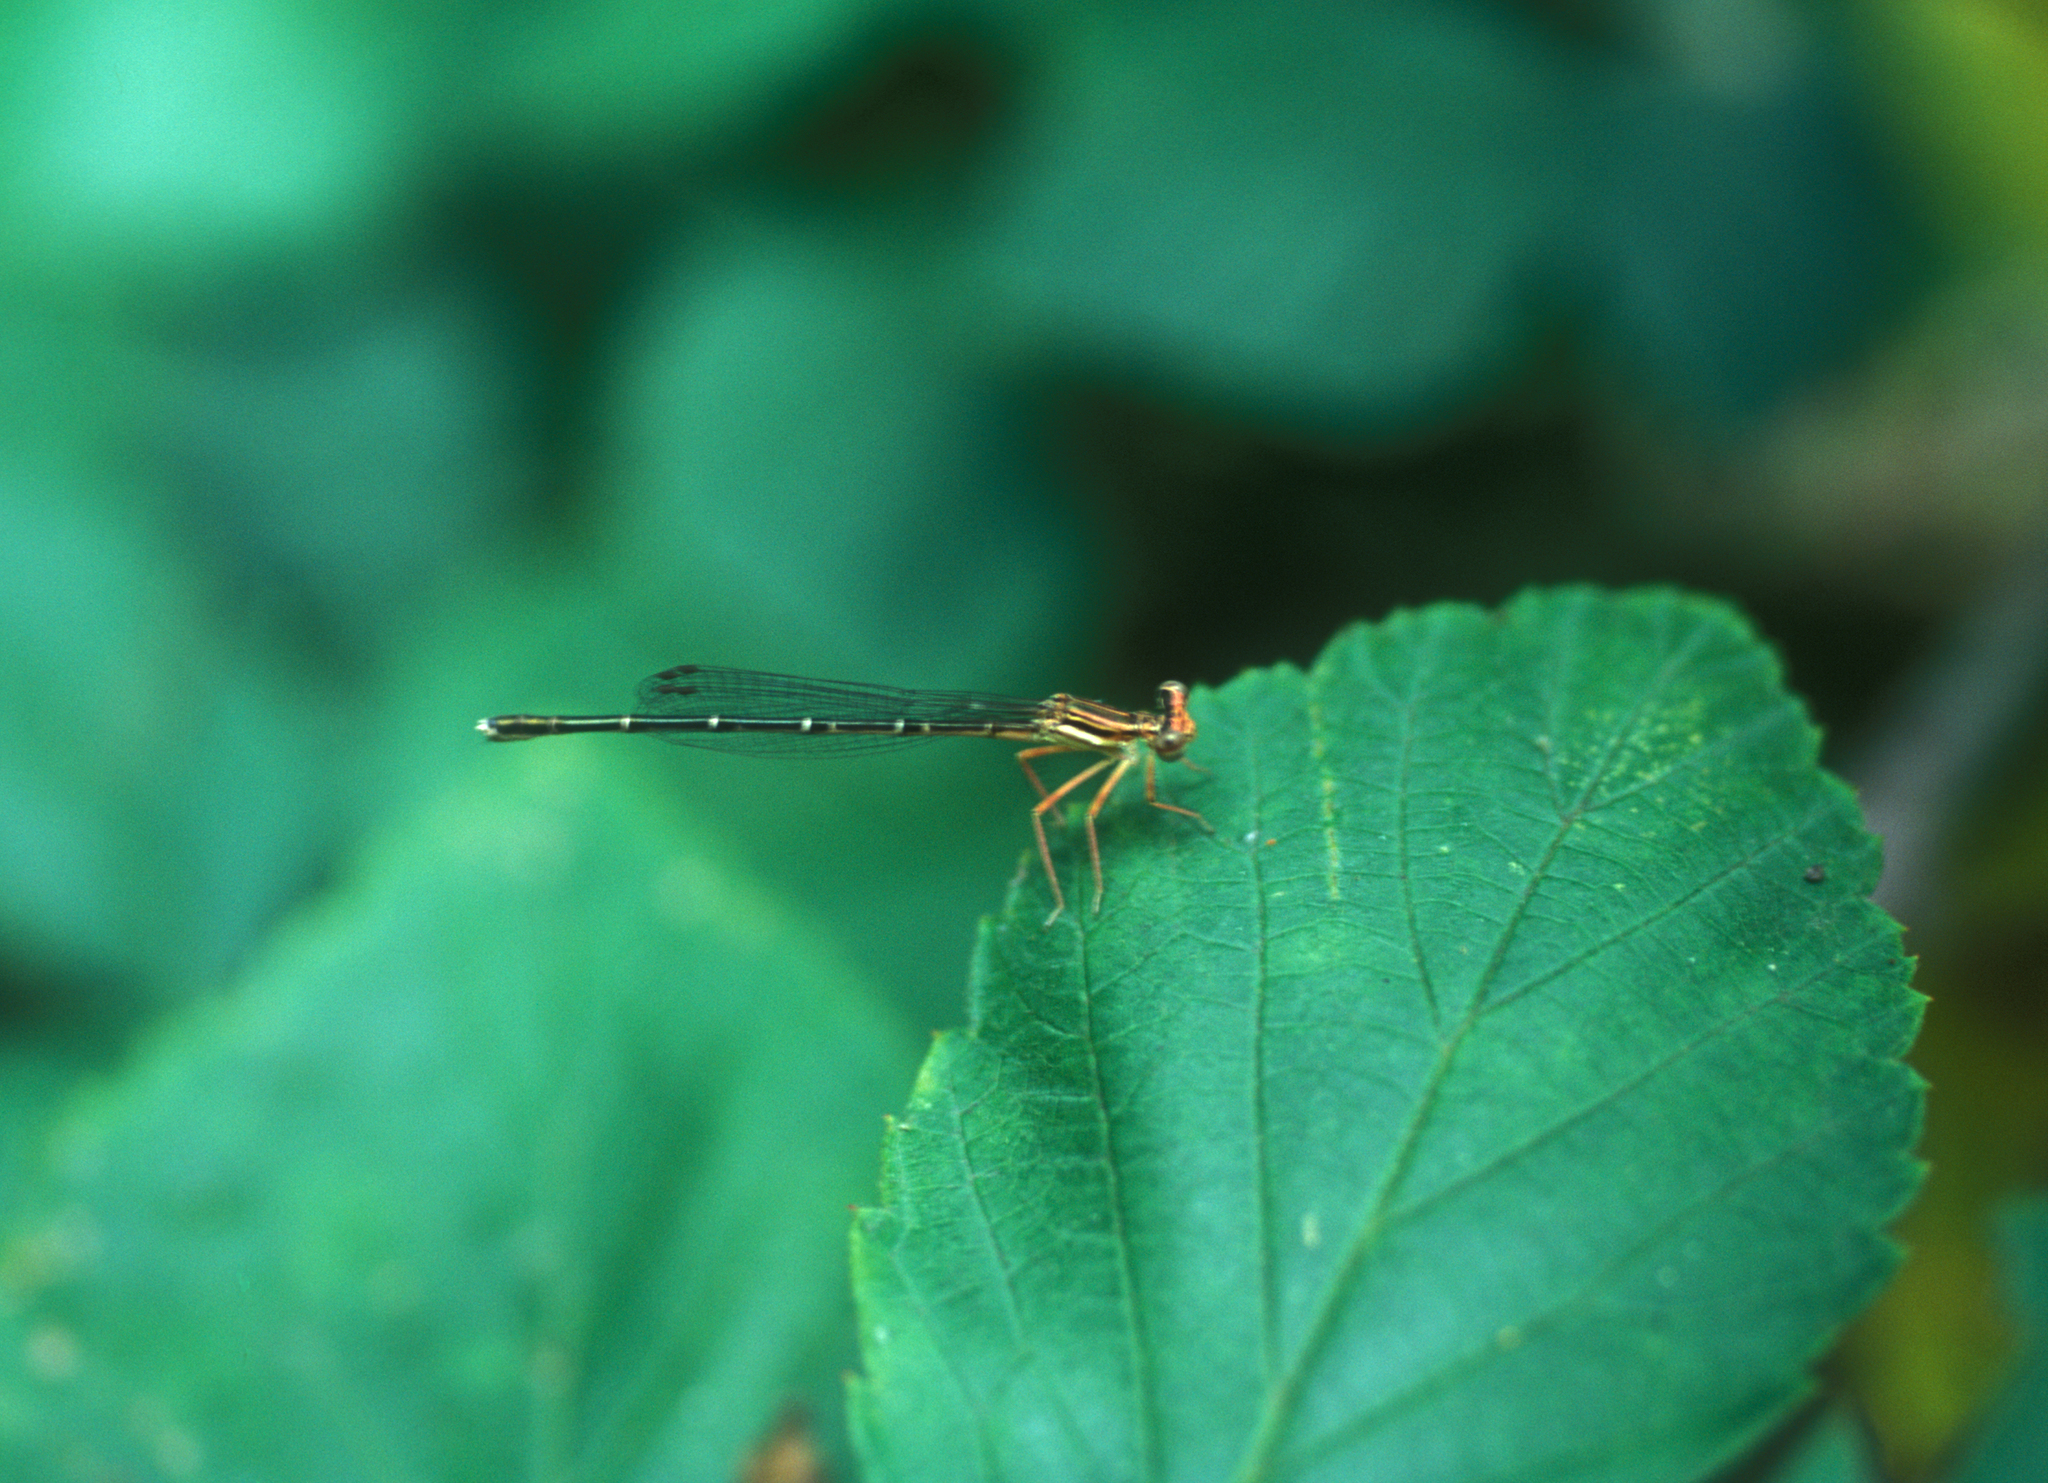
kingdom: Animalia
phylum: Arthropoda
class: Insecta
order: Odonata
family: Platycnemididae
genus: Platycnemis
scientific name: Platycnemis phyllopoda
